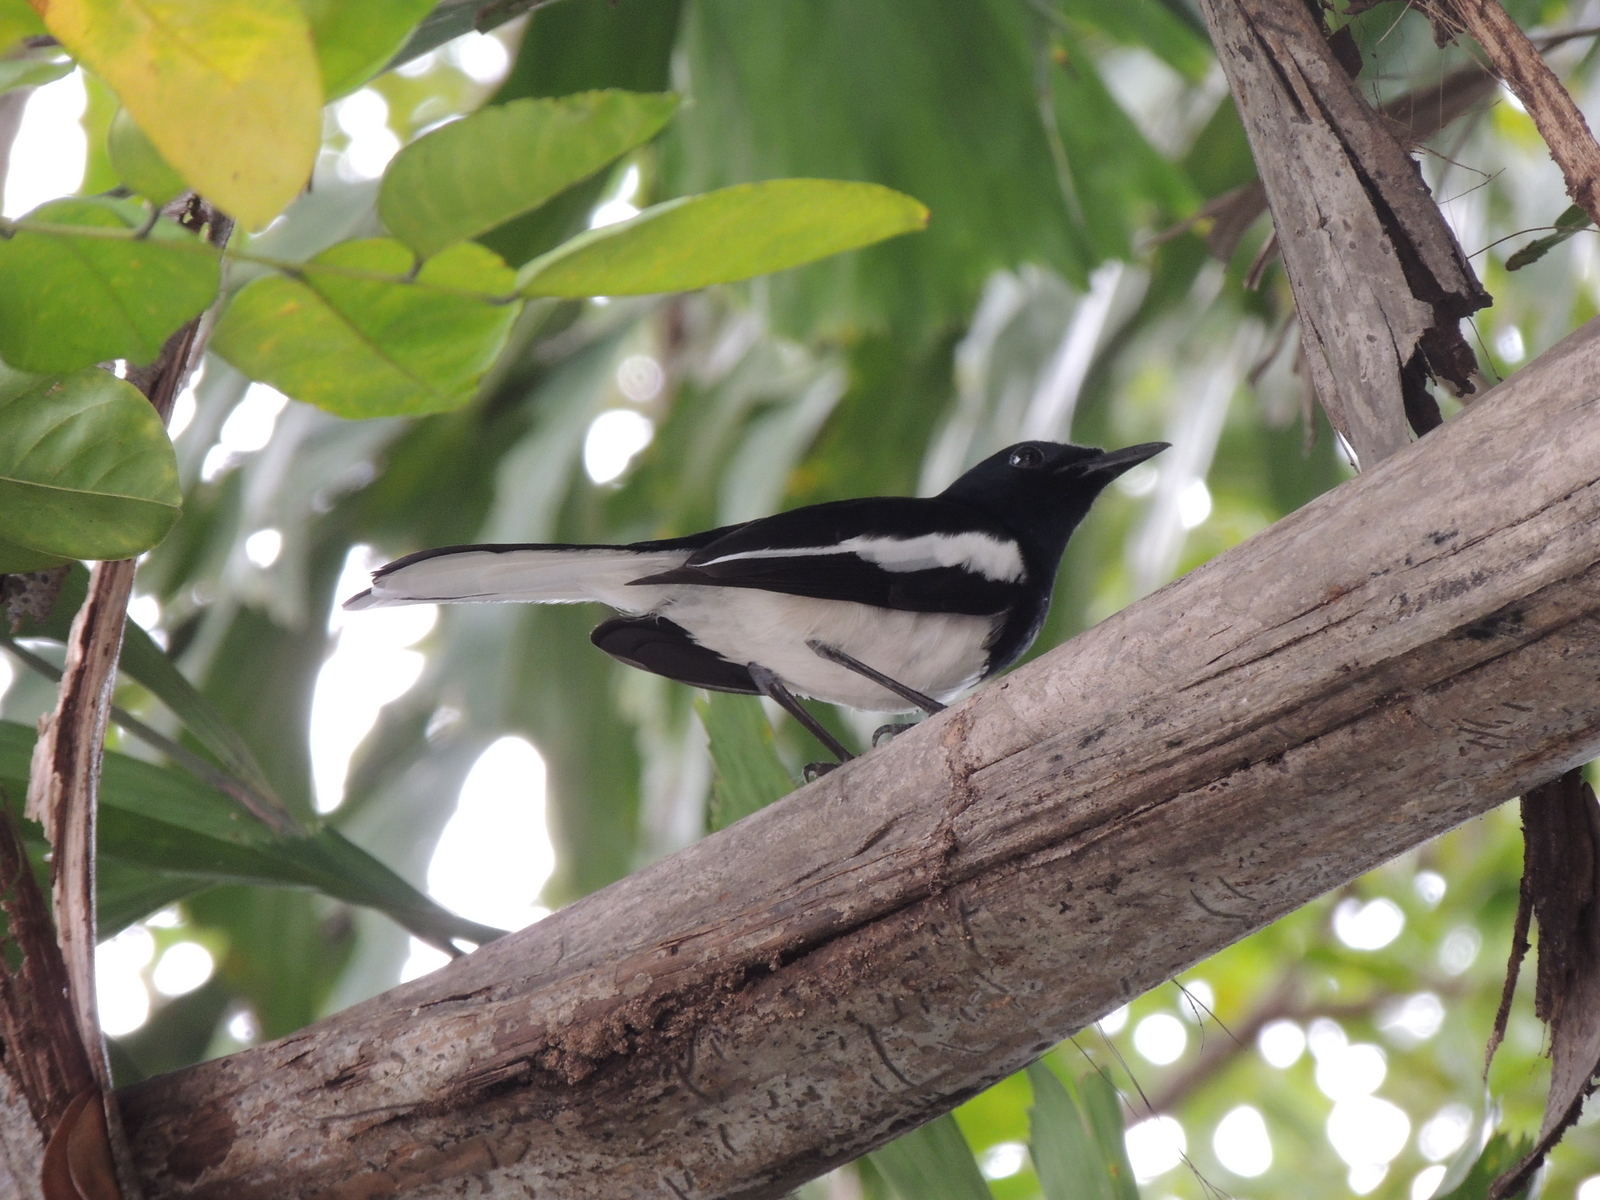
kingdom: Animalia
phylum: Chordata
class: Aves
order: Passeriformes
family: Muscicapidae
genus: Copsychus
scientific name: Copsychus saularis
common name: Oriental magpie-robin
